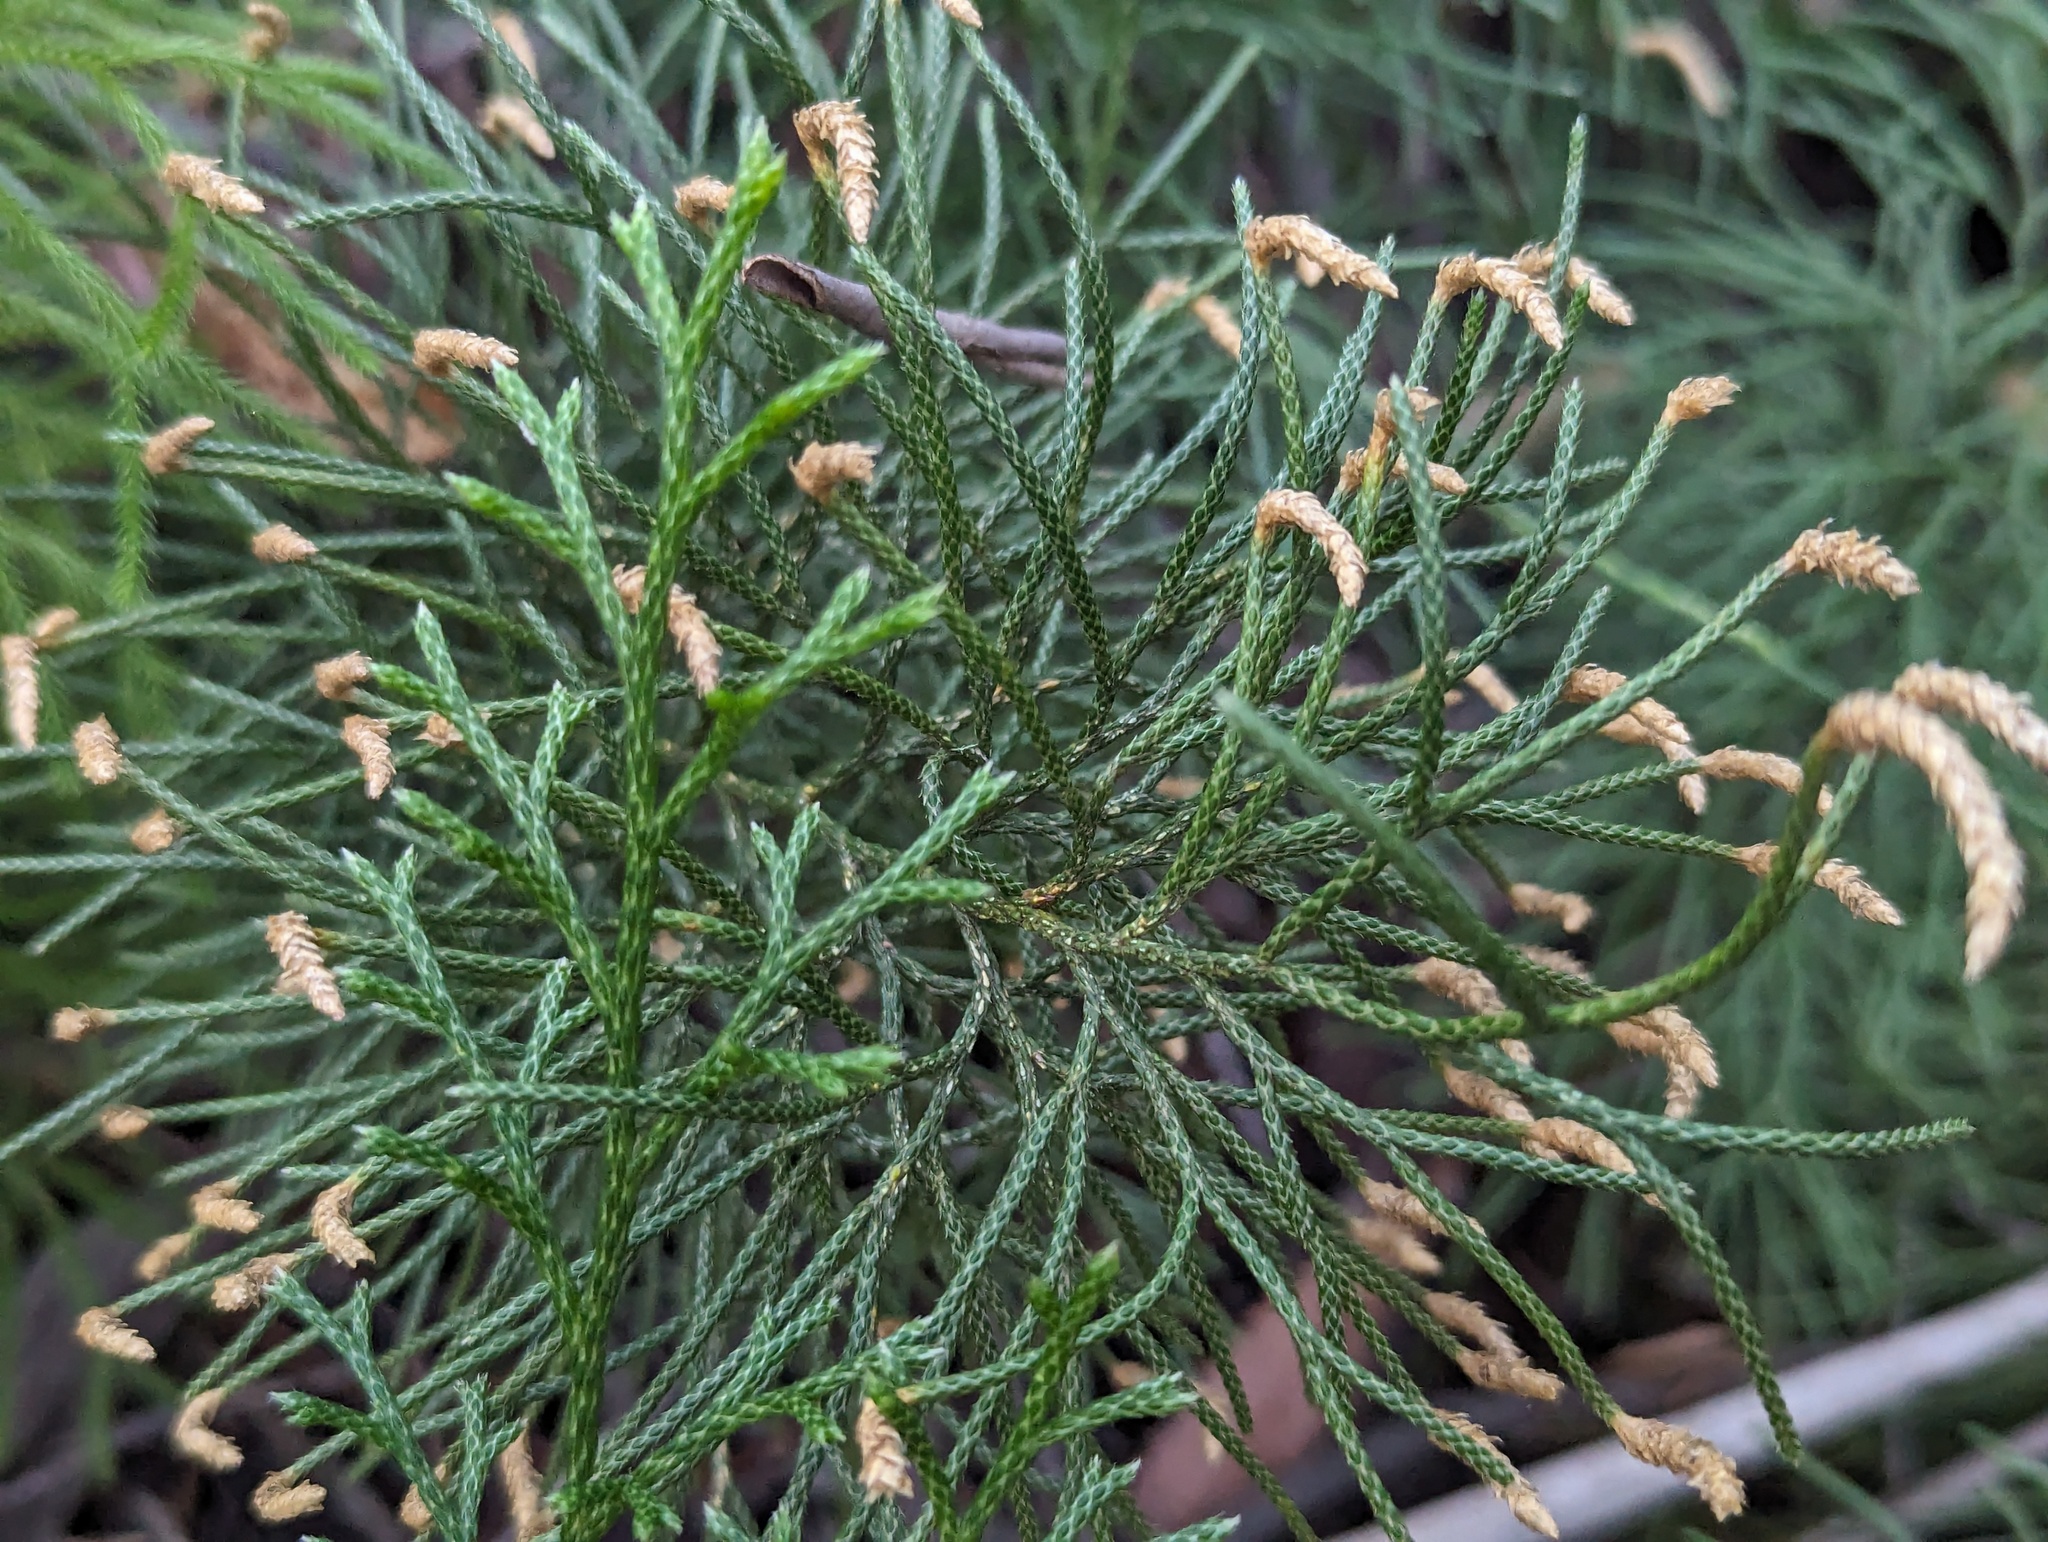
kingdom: Plantae
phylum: Tracheophyta
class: Lycopodiopsida
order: Lycopodiales
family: Lycopodiaceae
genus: Pseudolycopodium
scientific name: Pseudolycopodium densum
